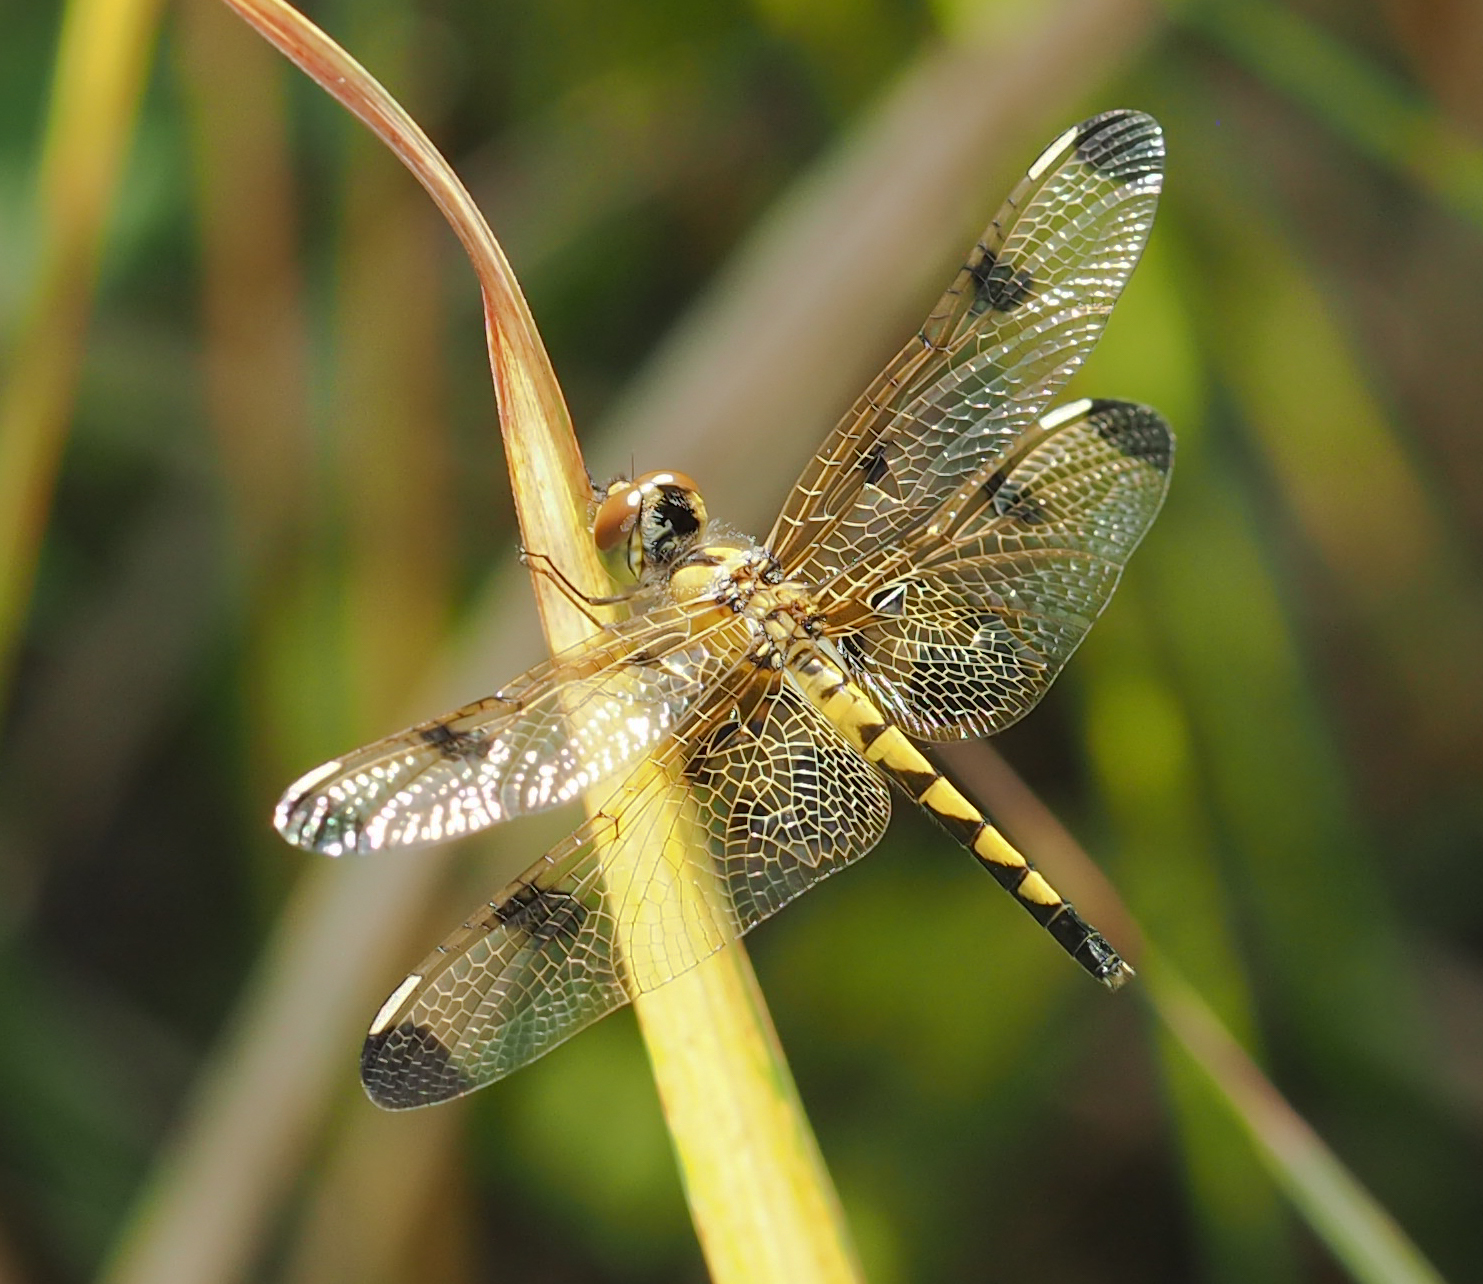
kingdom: Animalia
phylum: Arthropoda
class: Insecta
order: Odonata
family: Libellulidae
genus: Celithemis
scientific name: Celithemis elisa
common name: Calico pennant
